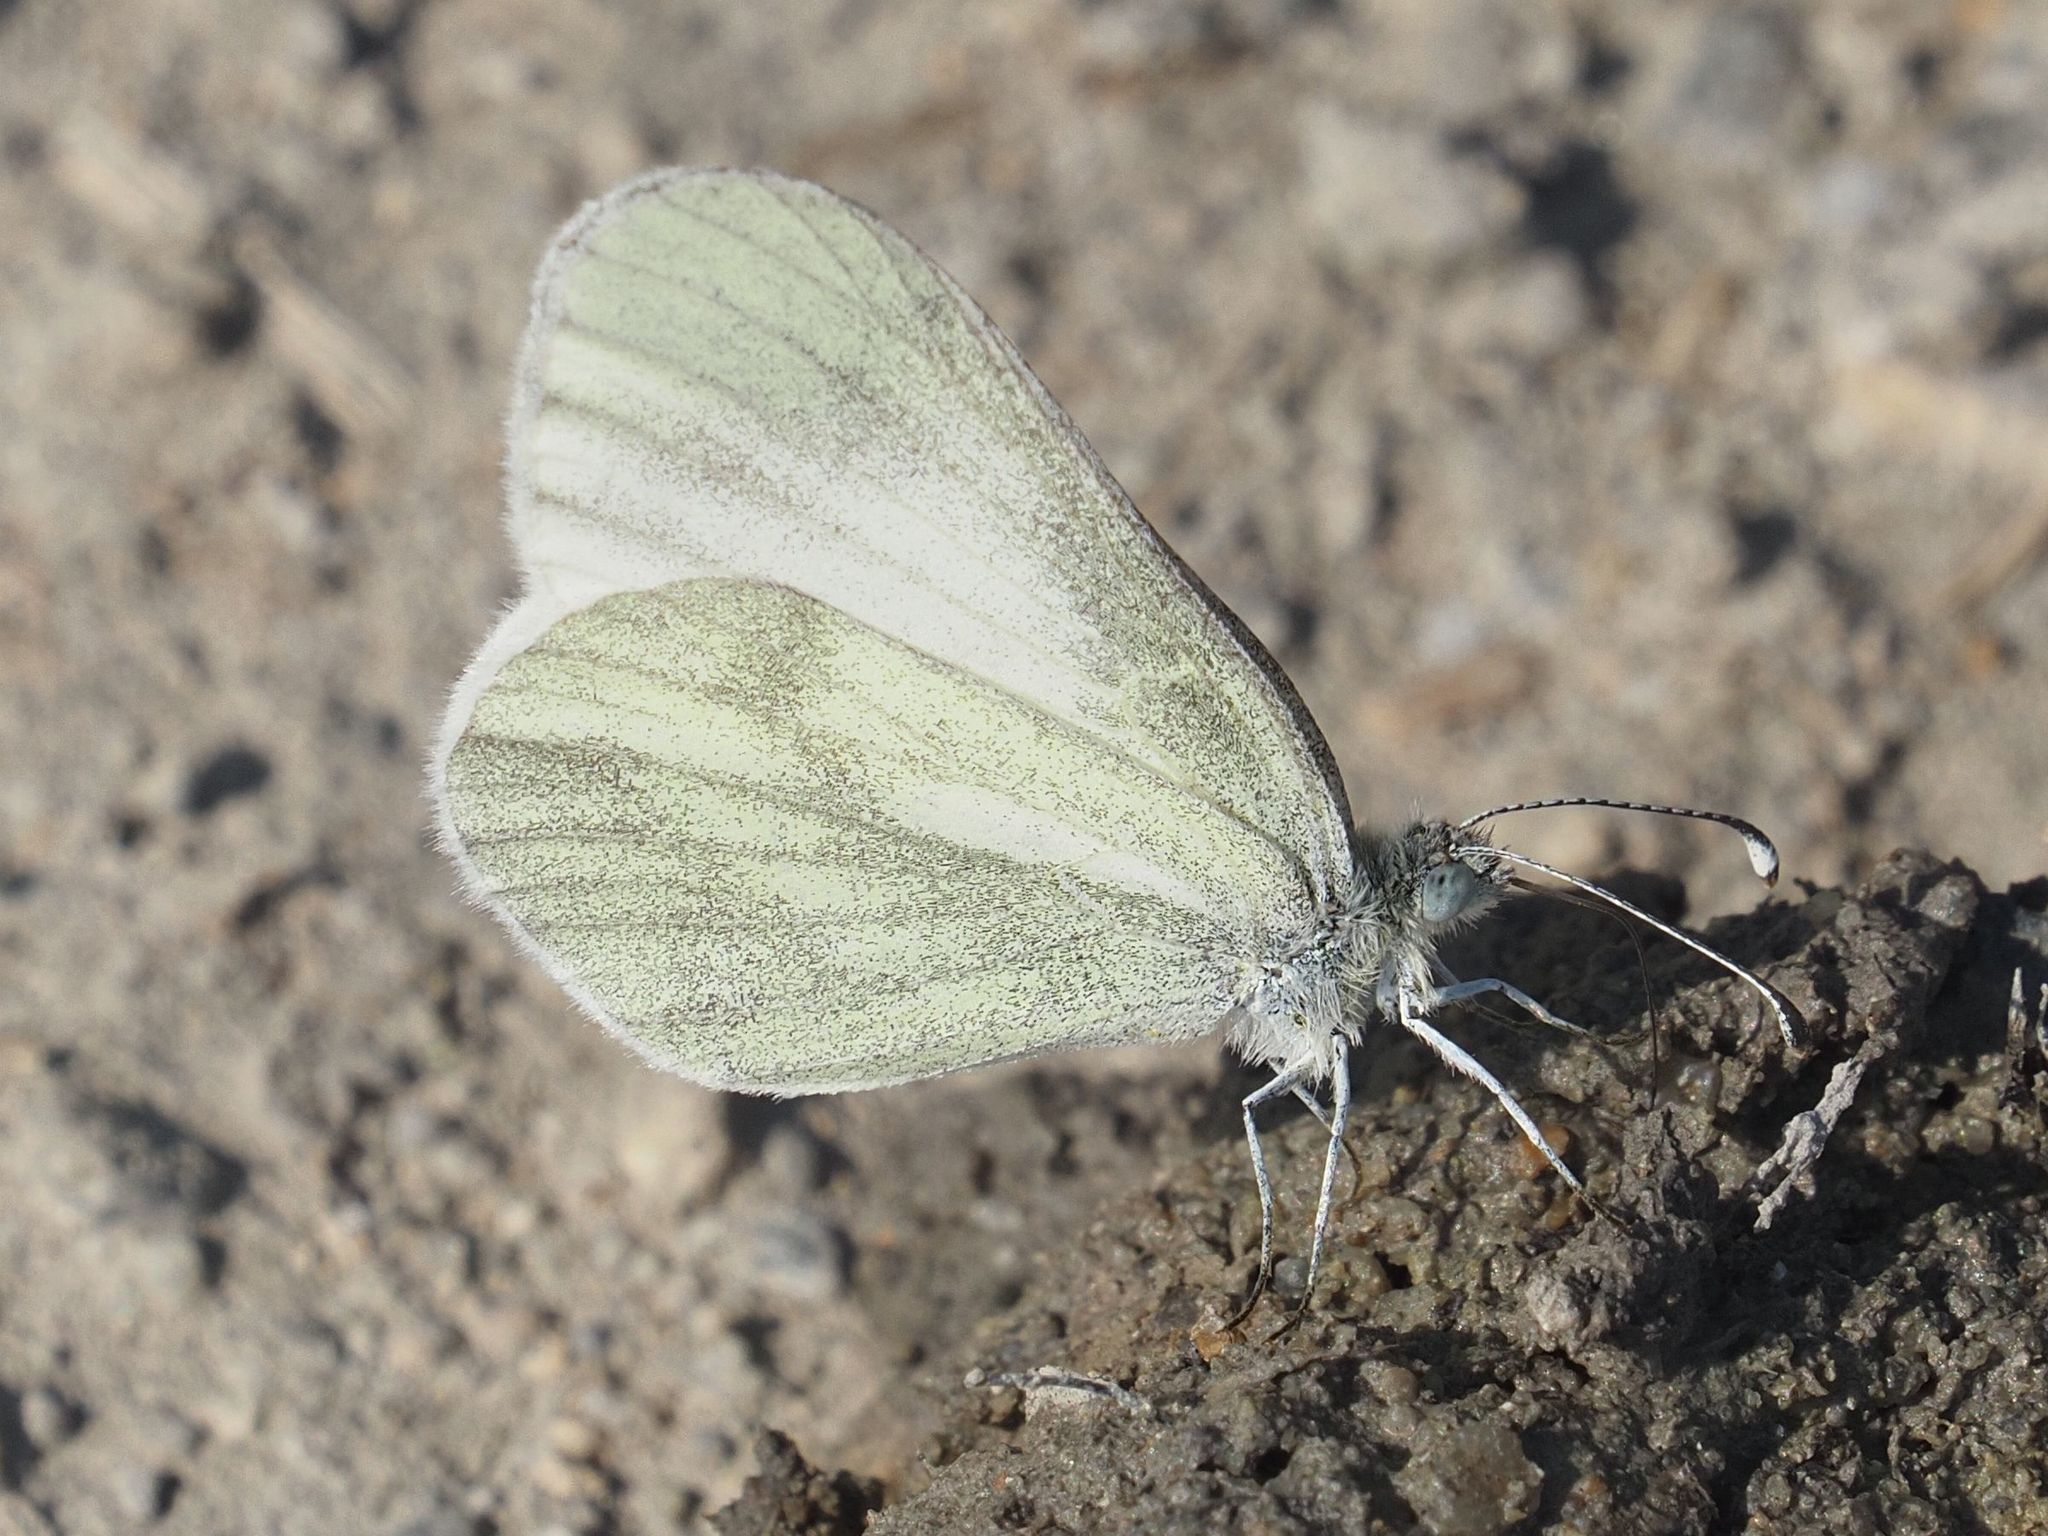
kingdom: Animalia
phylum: Arthropoda
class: Insecta
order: Lepidoptera
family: Pieridae
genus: Leptidea
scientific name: Leptidea
